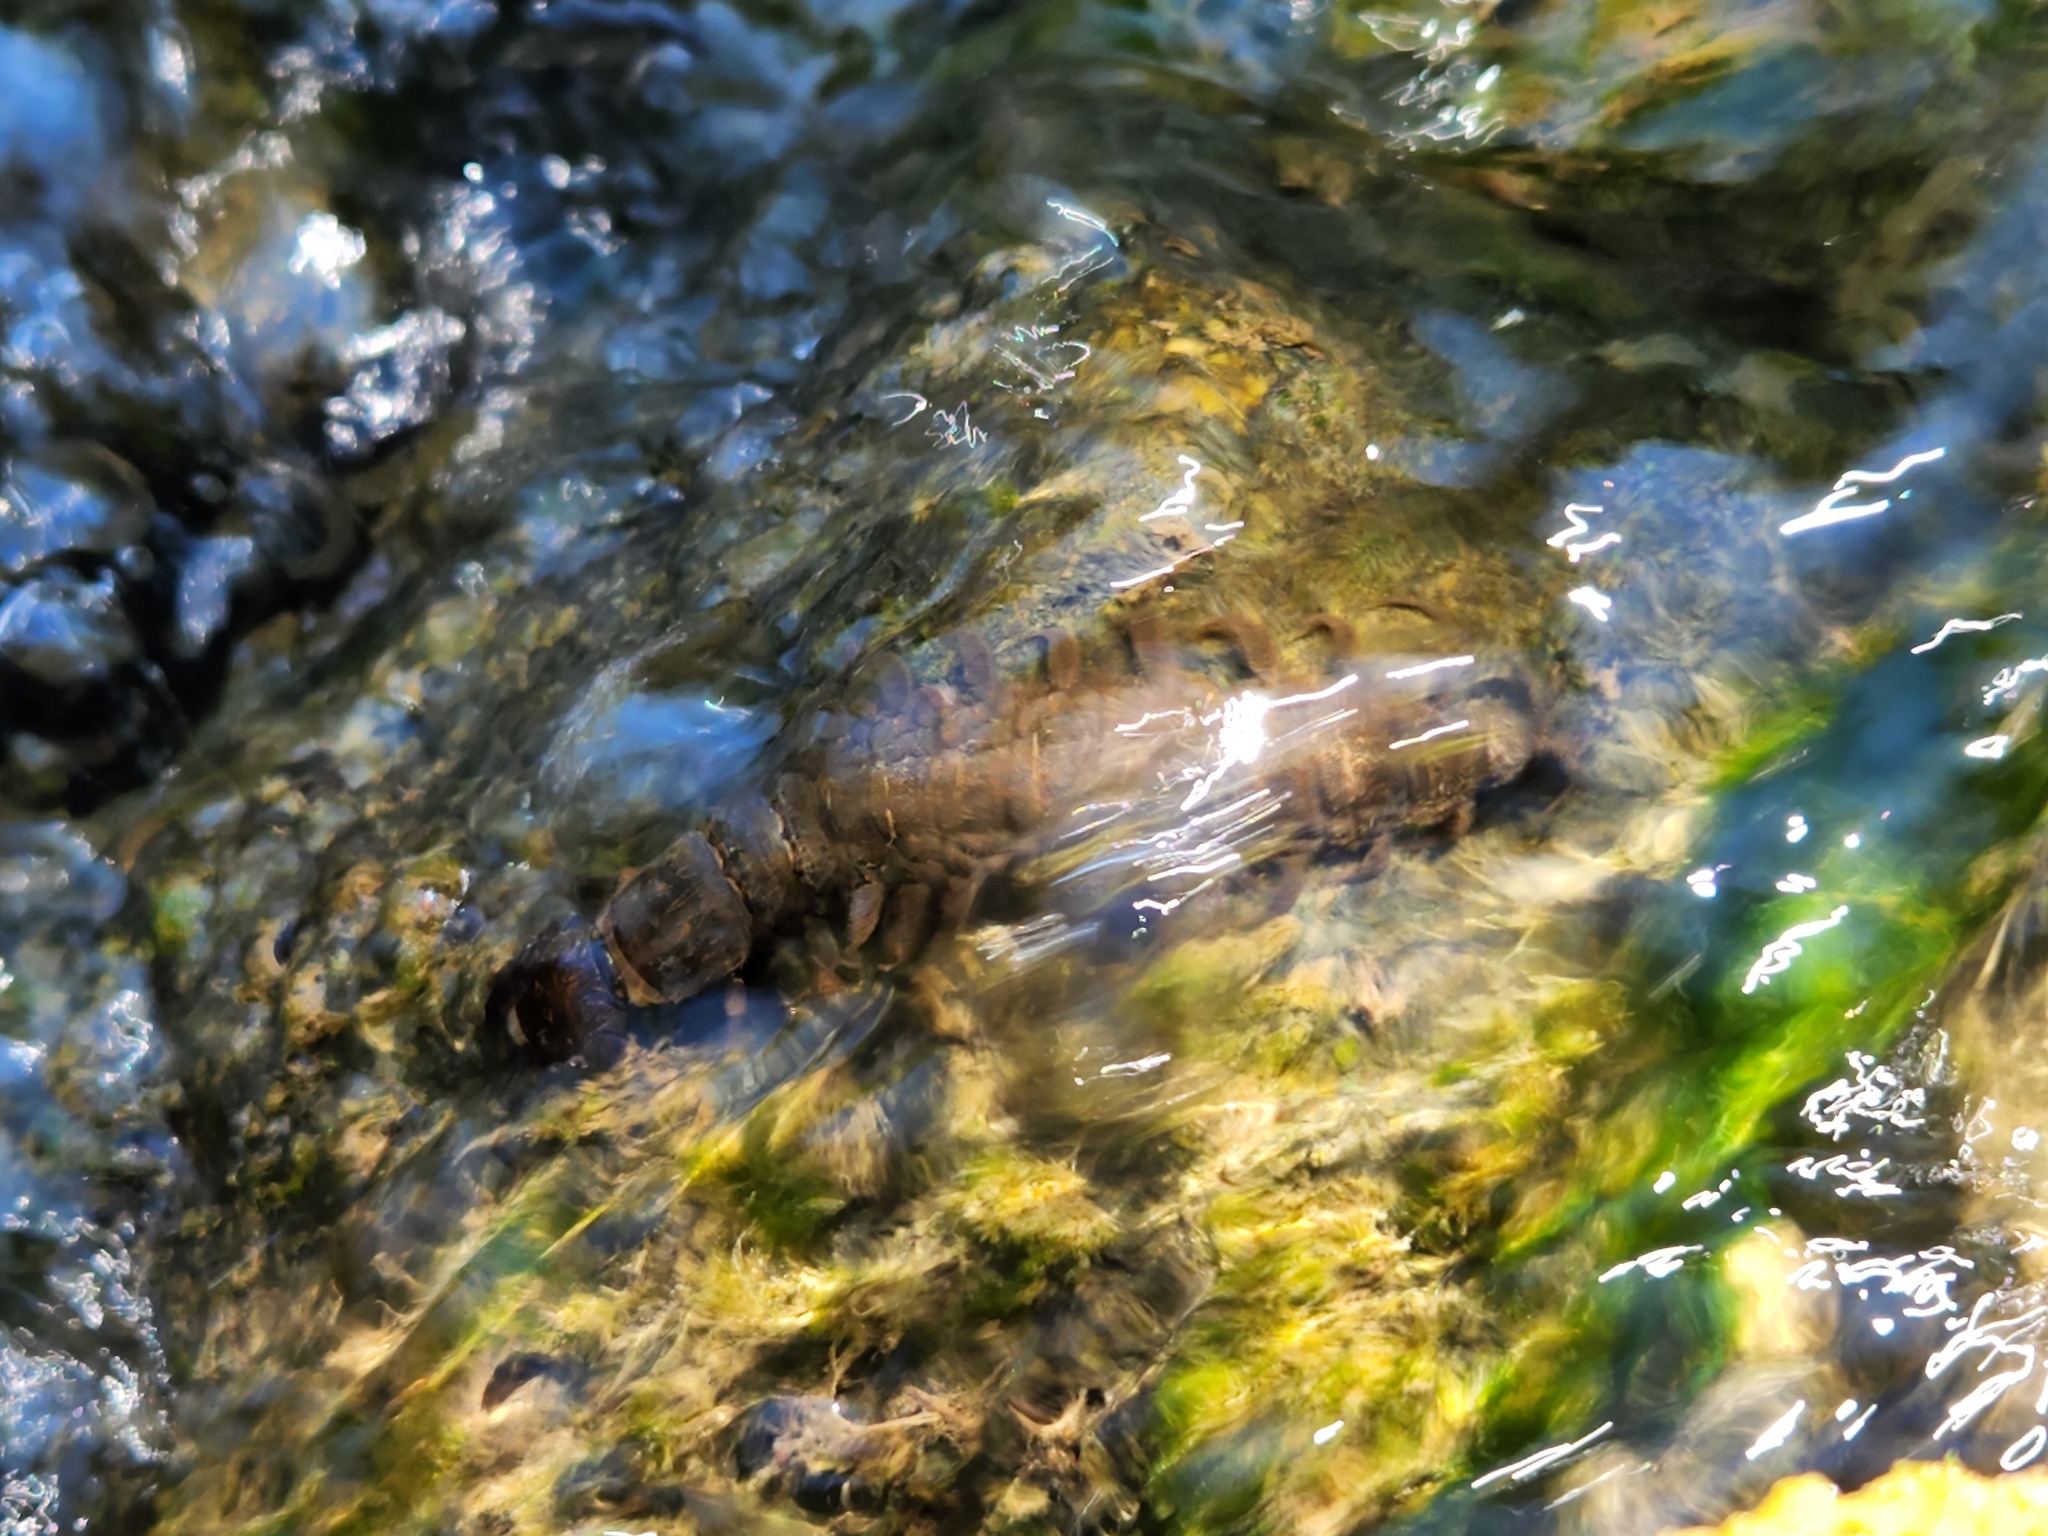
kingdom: Animalia
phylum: Arthropoda
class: Insecta
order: Megaloptera
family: Corydalidae
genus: Corydalus
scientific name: Corydalus cornutus
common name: Dobsonfly
